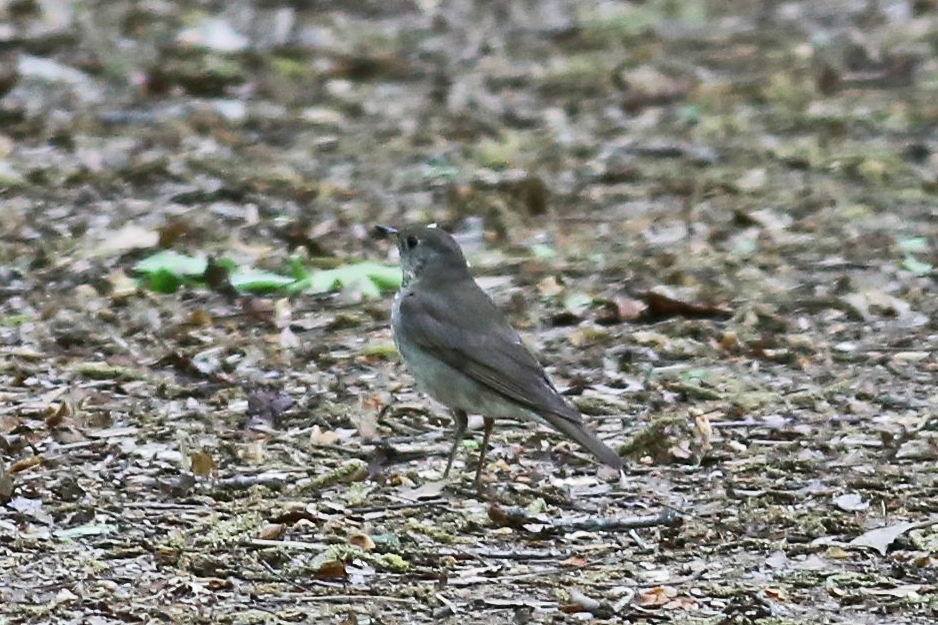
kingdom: Animalia
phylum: Chordata
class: Aves
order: Passeriformes
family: Turdidae
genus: Catharus
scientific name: Catharus minimus
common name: Grey-cheeked thrush
